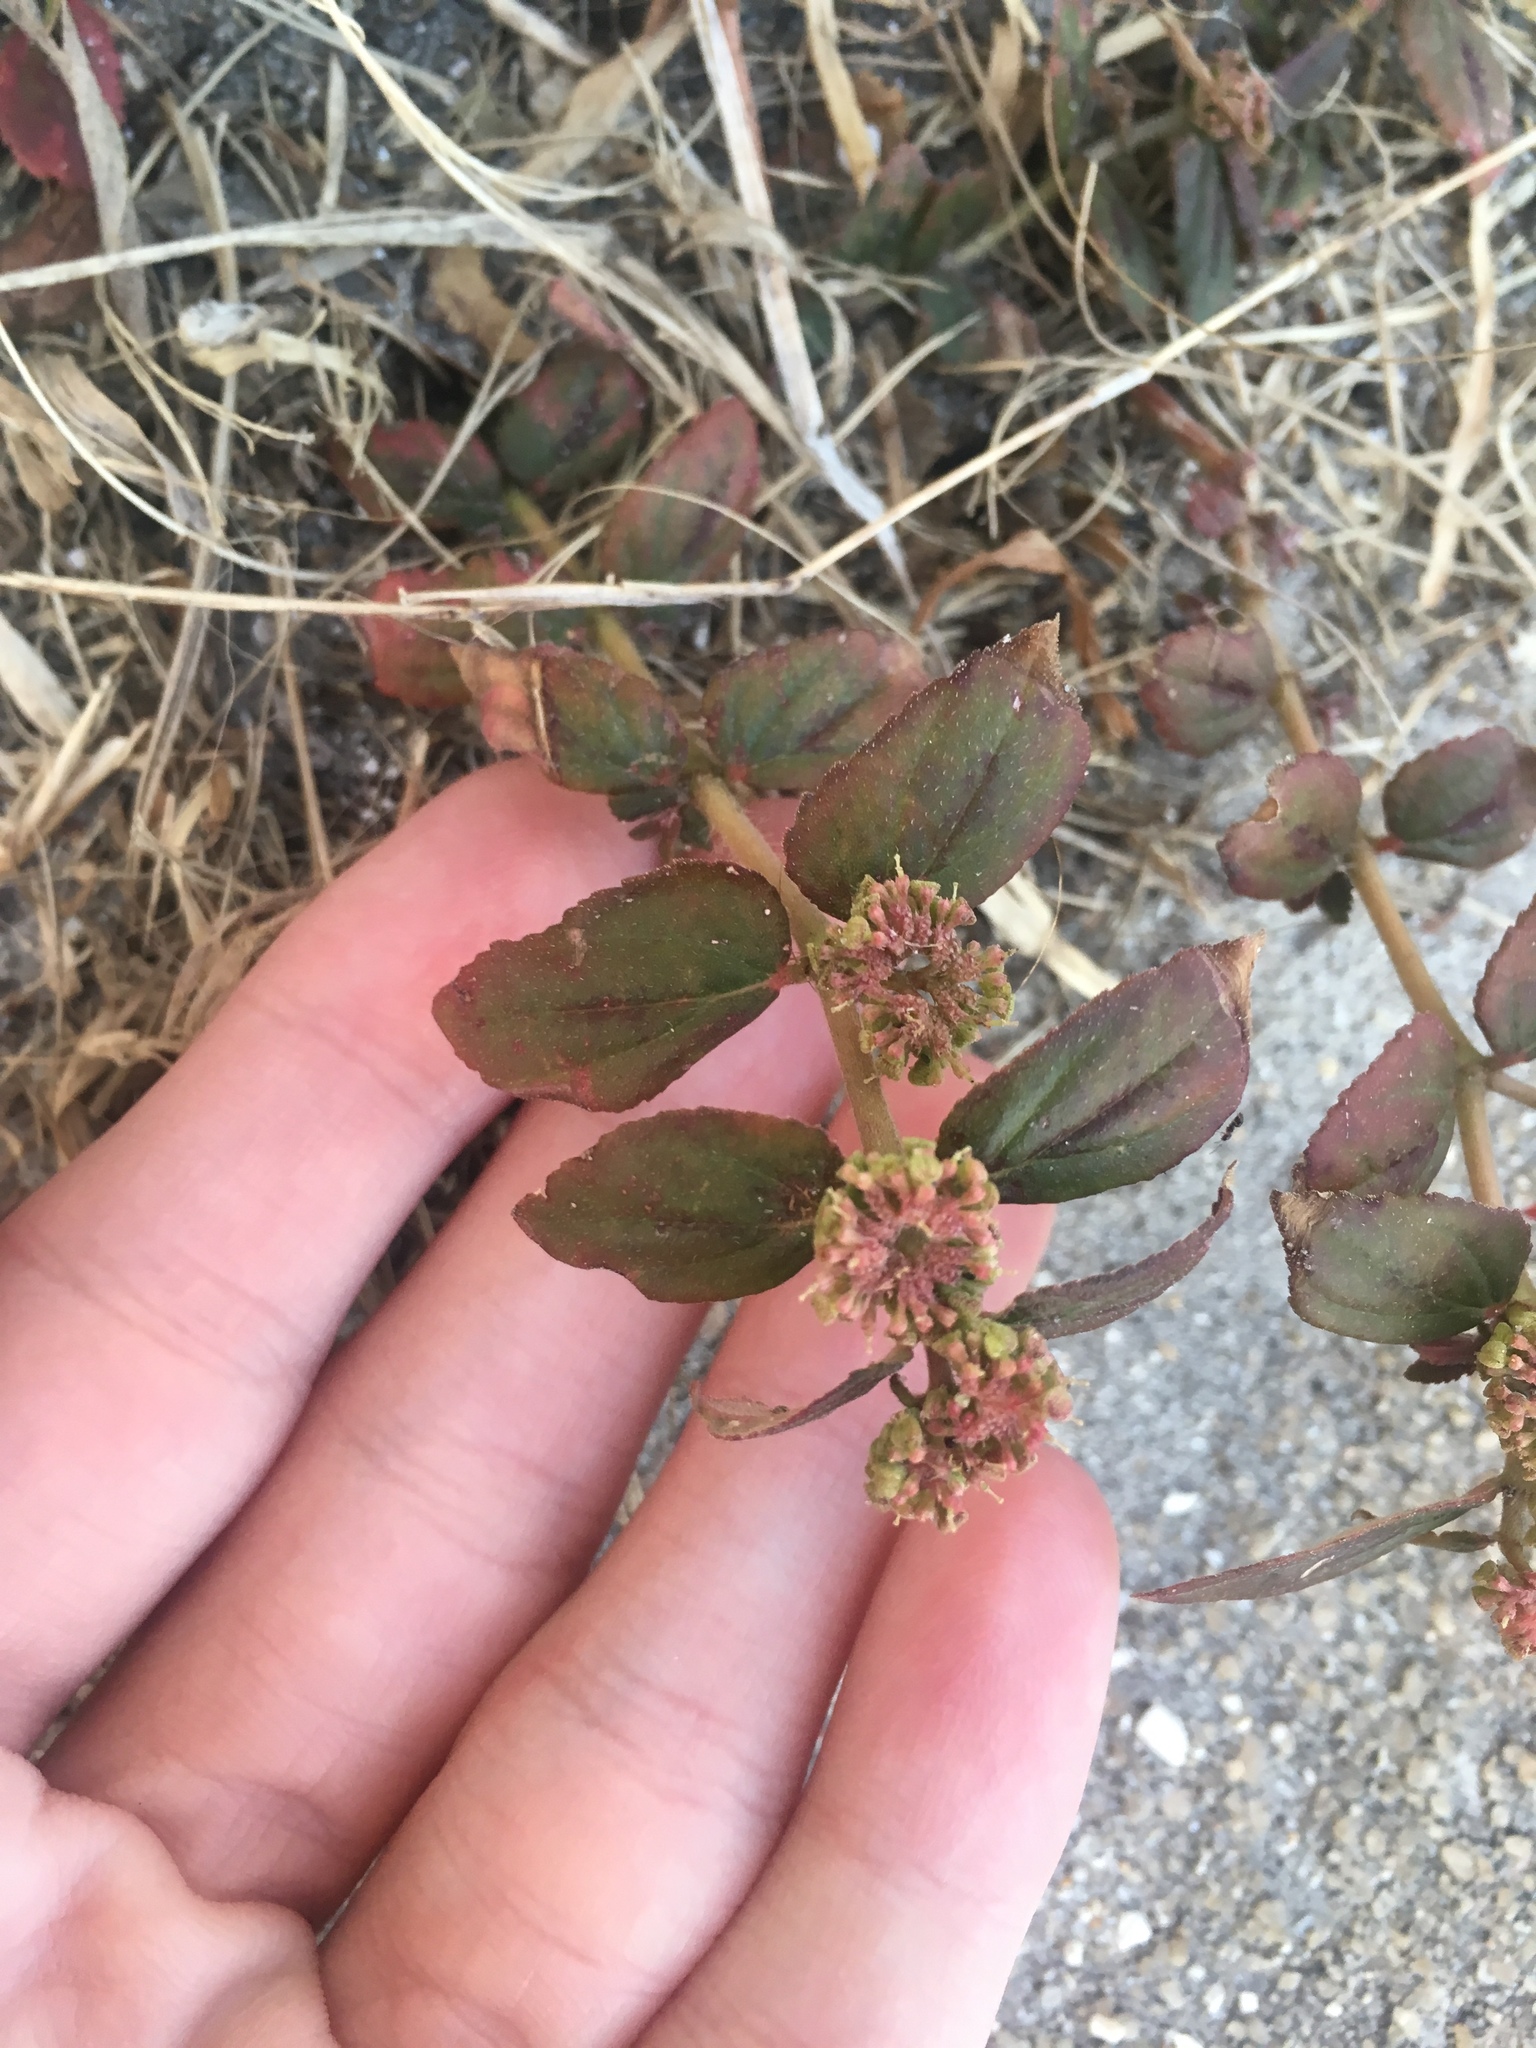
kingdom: Plantae
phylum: Tracheophyta
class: Magnoliopsida
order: Malpighiales
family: Euphorbiaceae
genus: Euphorbia
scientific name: Euphorbia hirta
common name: Pillpod sandmat
